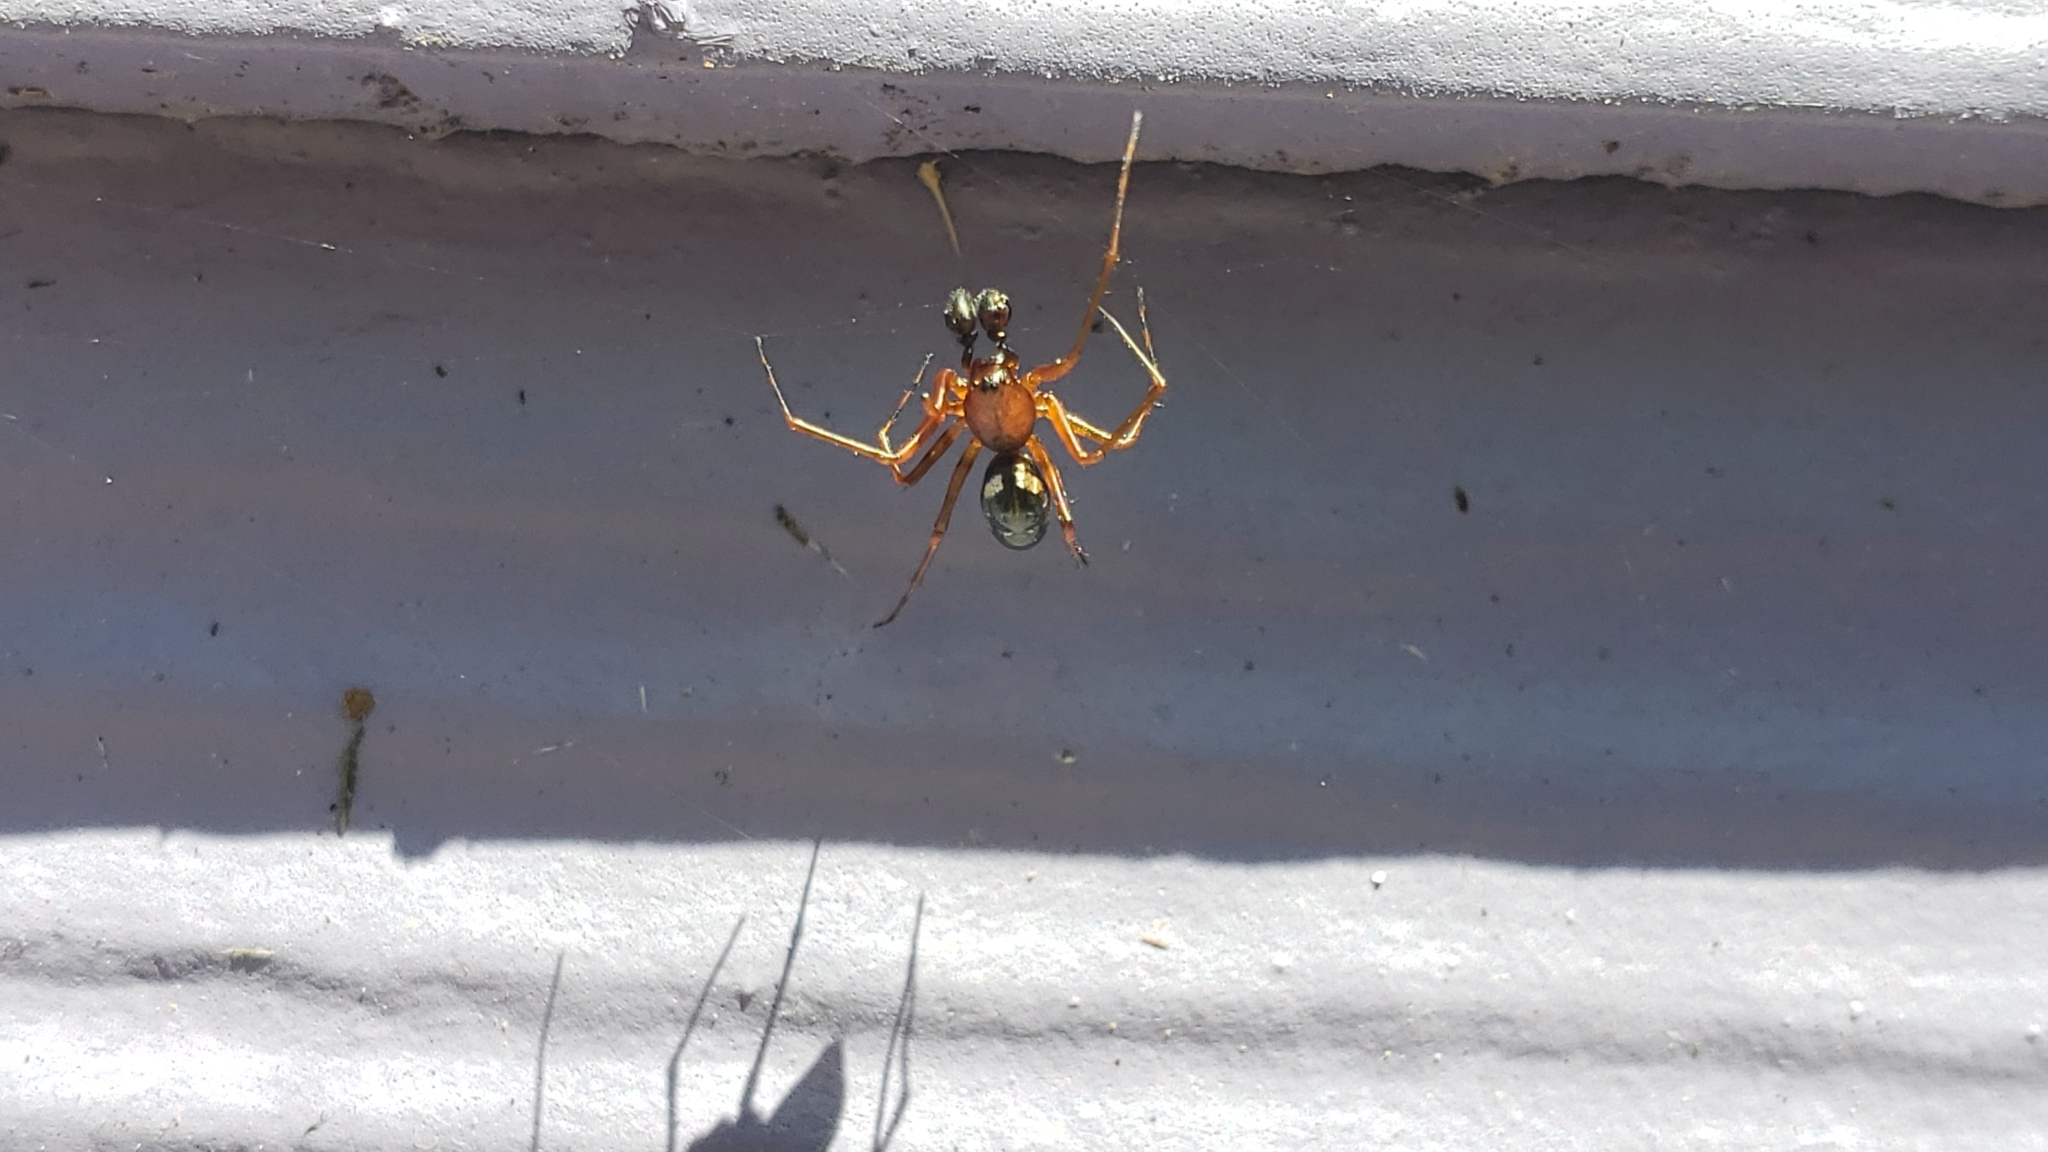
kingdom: Animalia
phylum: Arthropoda
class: Arachnida
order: Araneae
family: Linyphiidae
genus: Neriene
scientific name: Neriene digna
